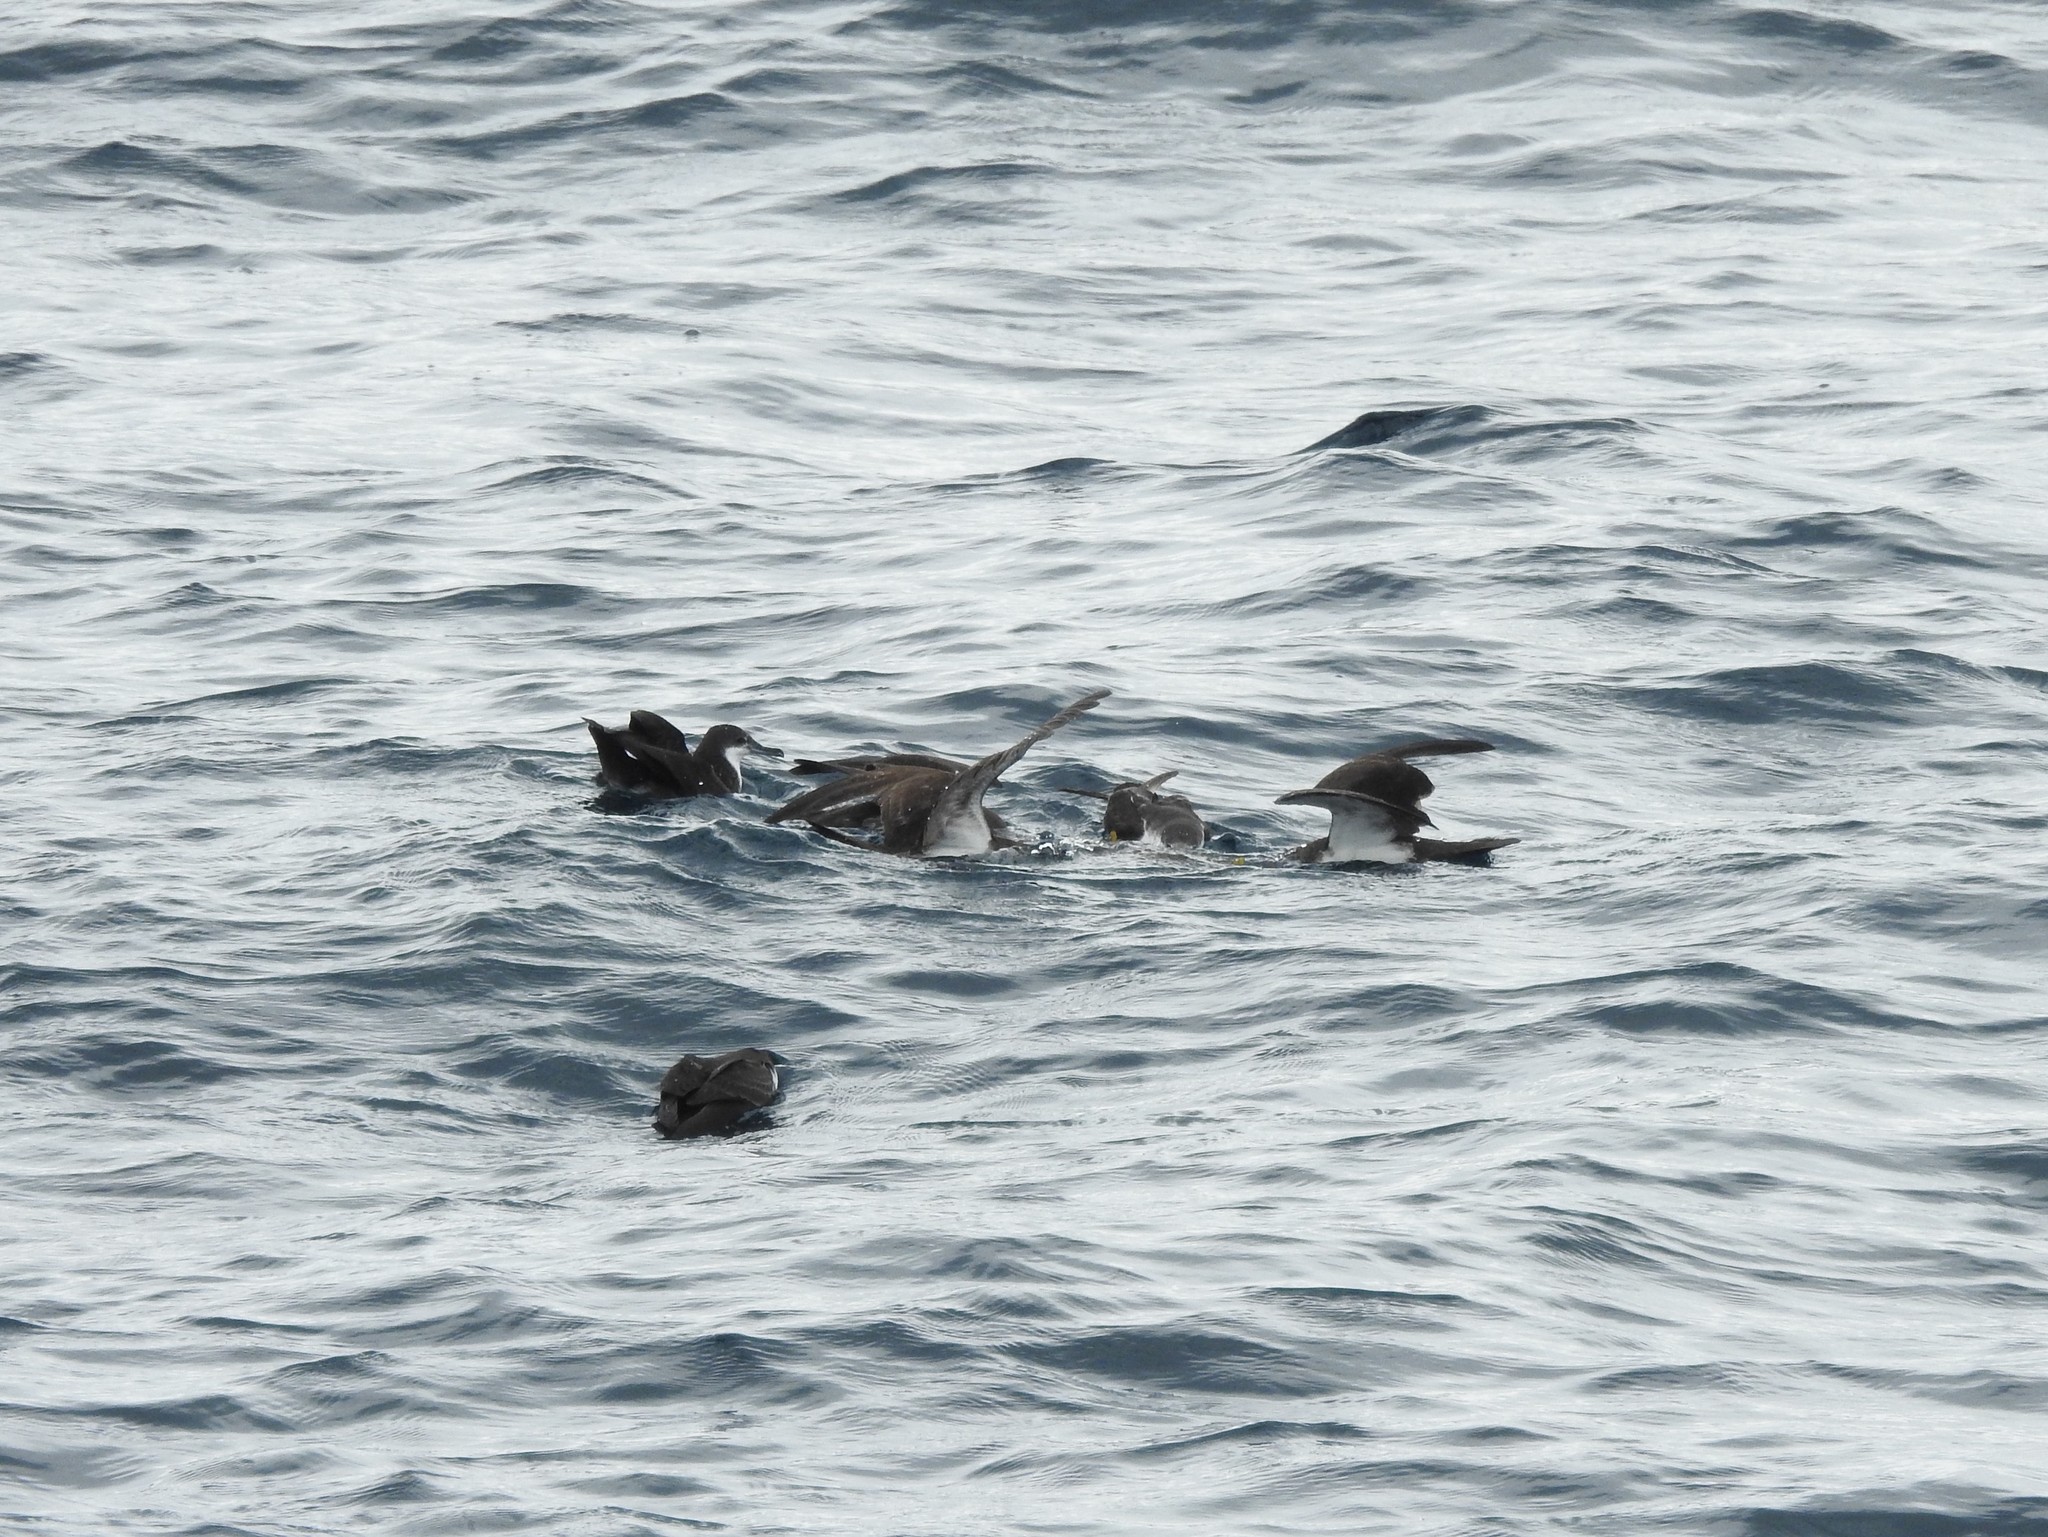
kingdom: Animalia
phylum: Chordata
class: Aves
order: Procellariiformes
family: Procellariidae
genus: Puffinus
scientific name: Puffinus subalaris
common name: Galapagos shearwater
